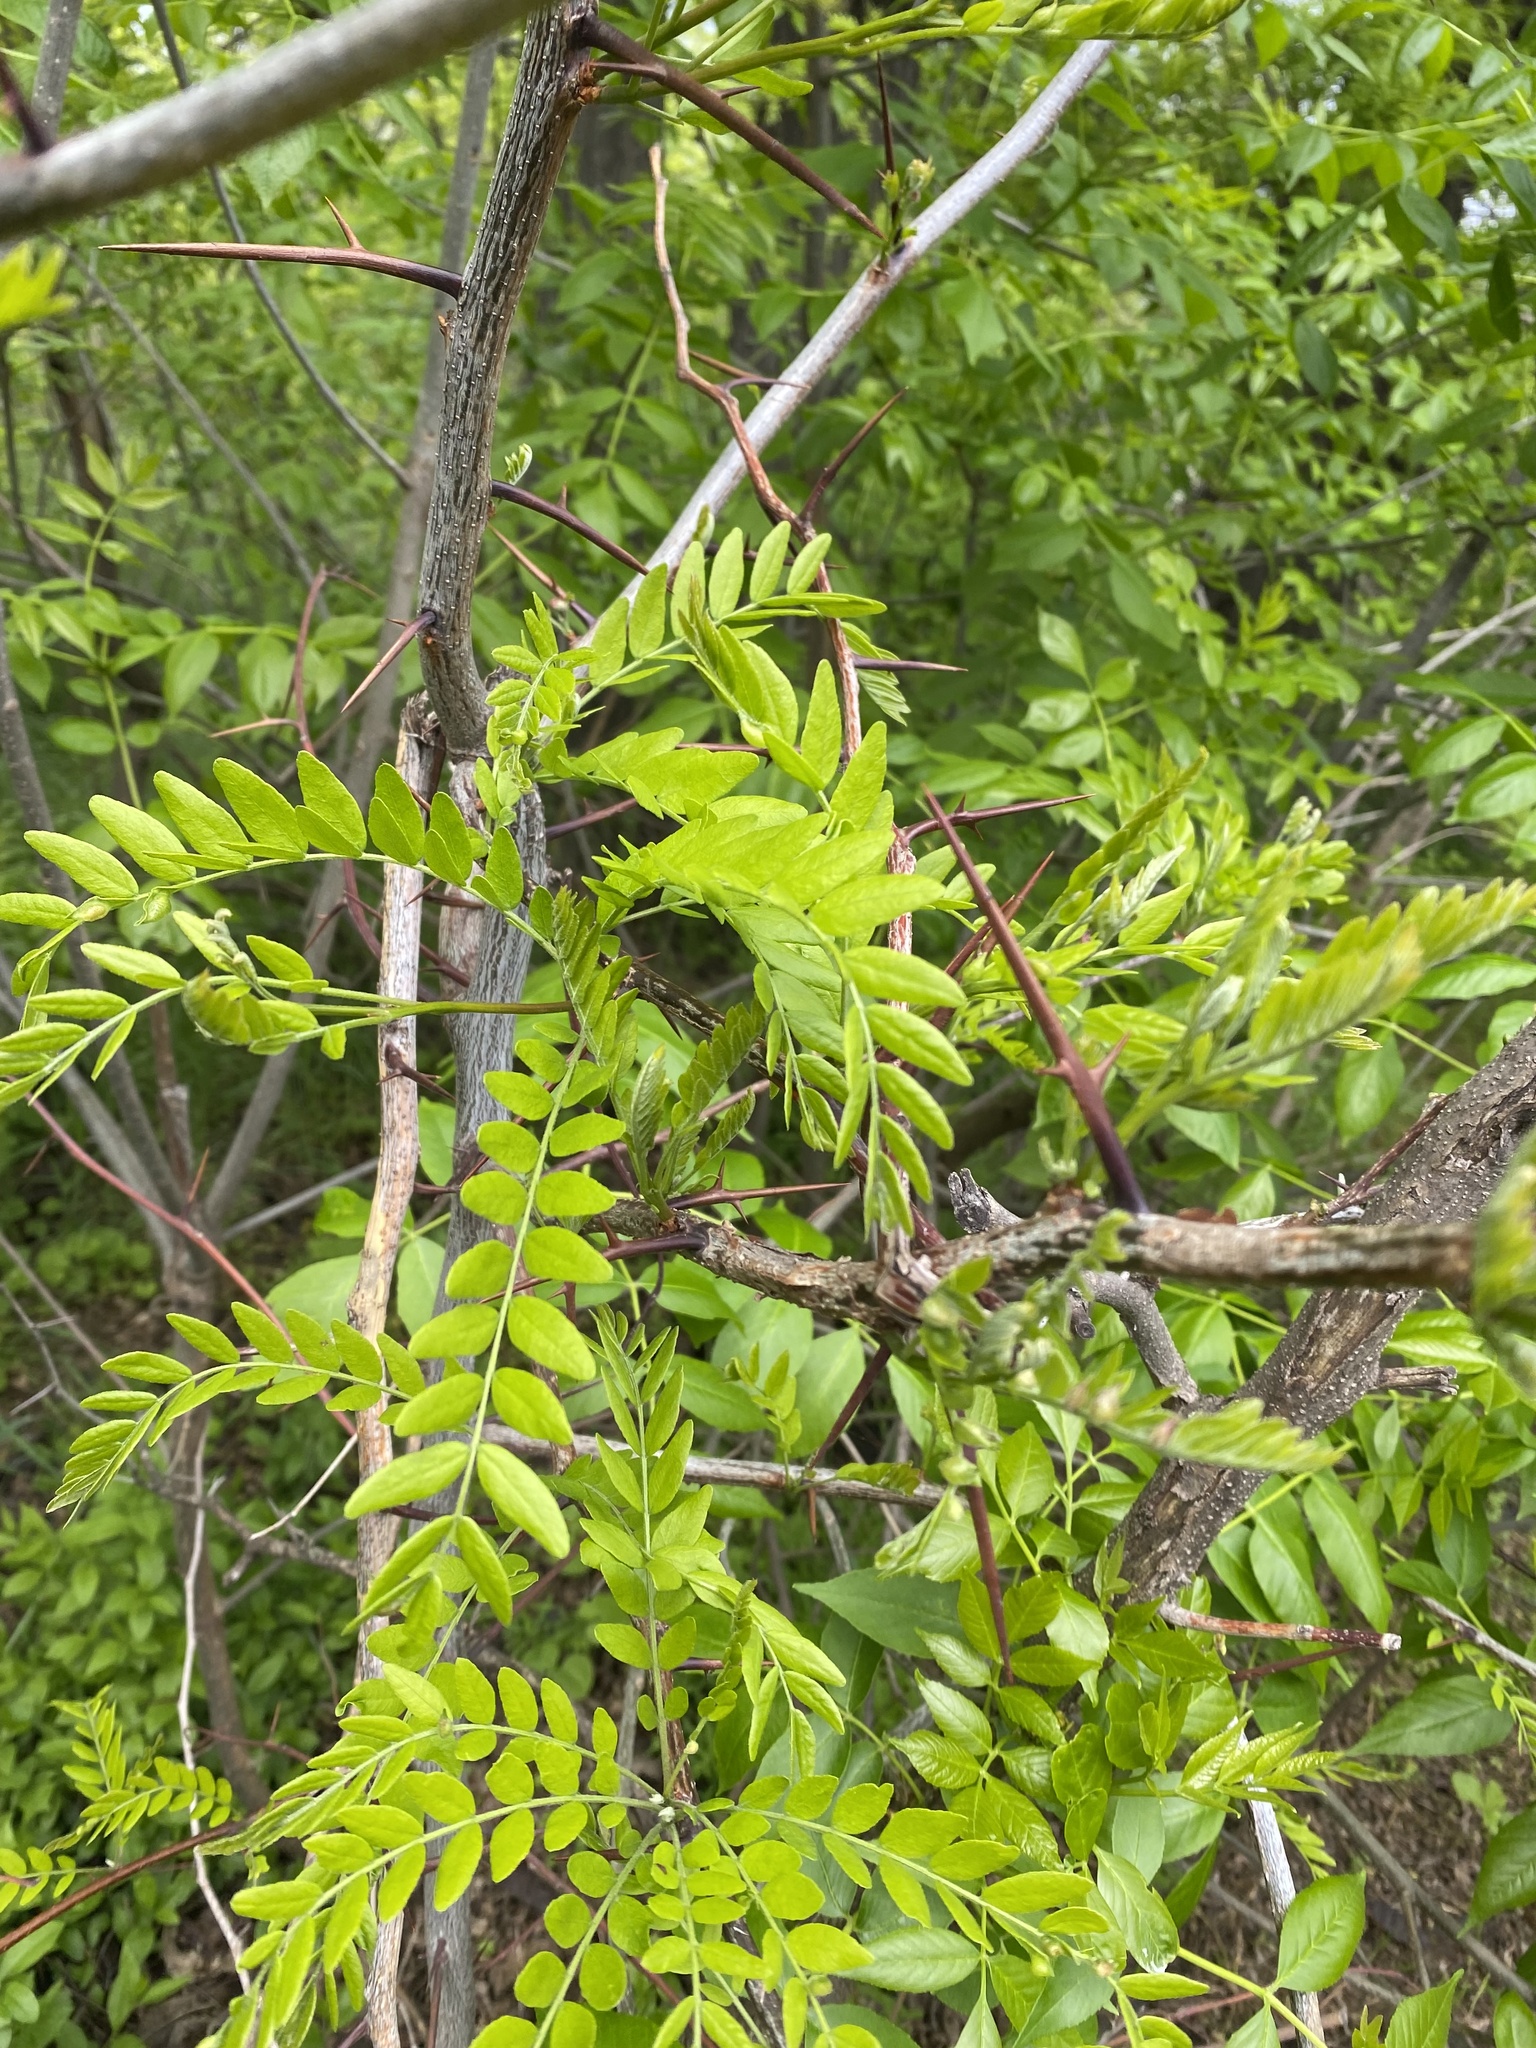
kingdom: Plantae
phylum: Tracheophyta
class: Magnoliopsida
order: Fabales
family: Fabaceae
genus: Gleditsia
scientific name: Gleditsia triacanthos
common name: Common honeylocust
